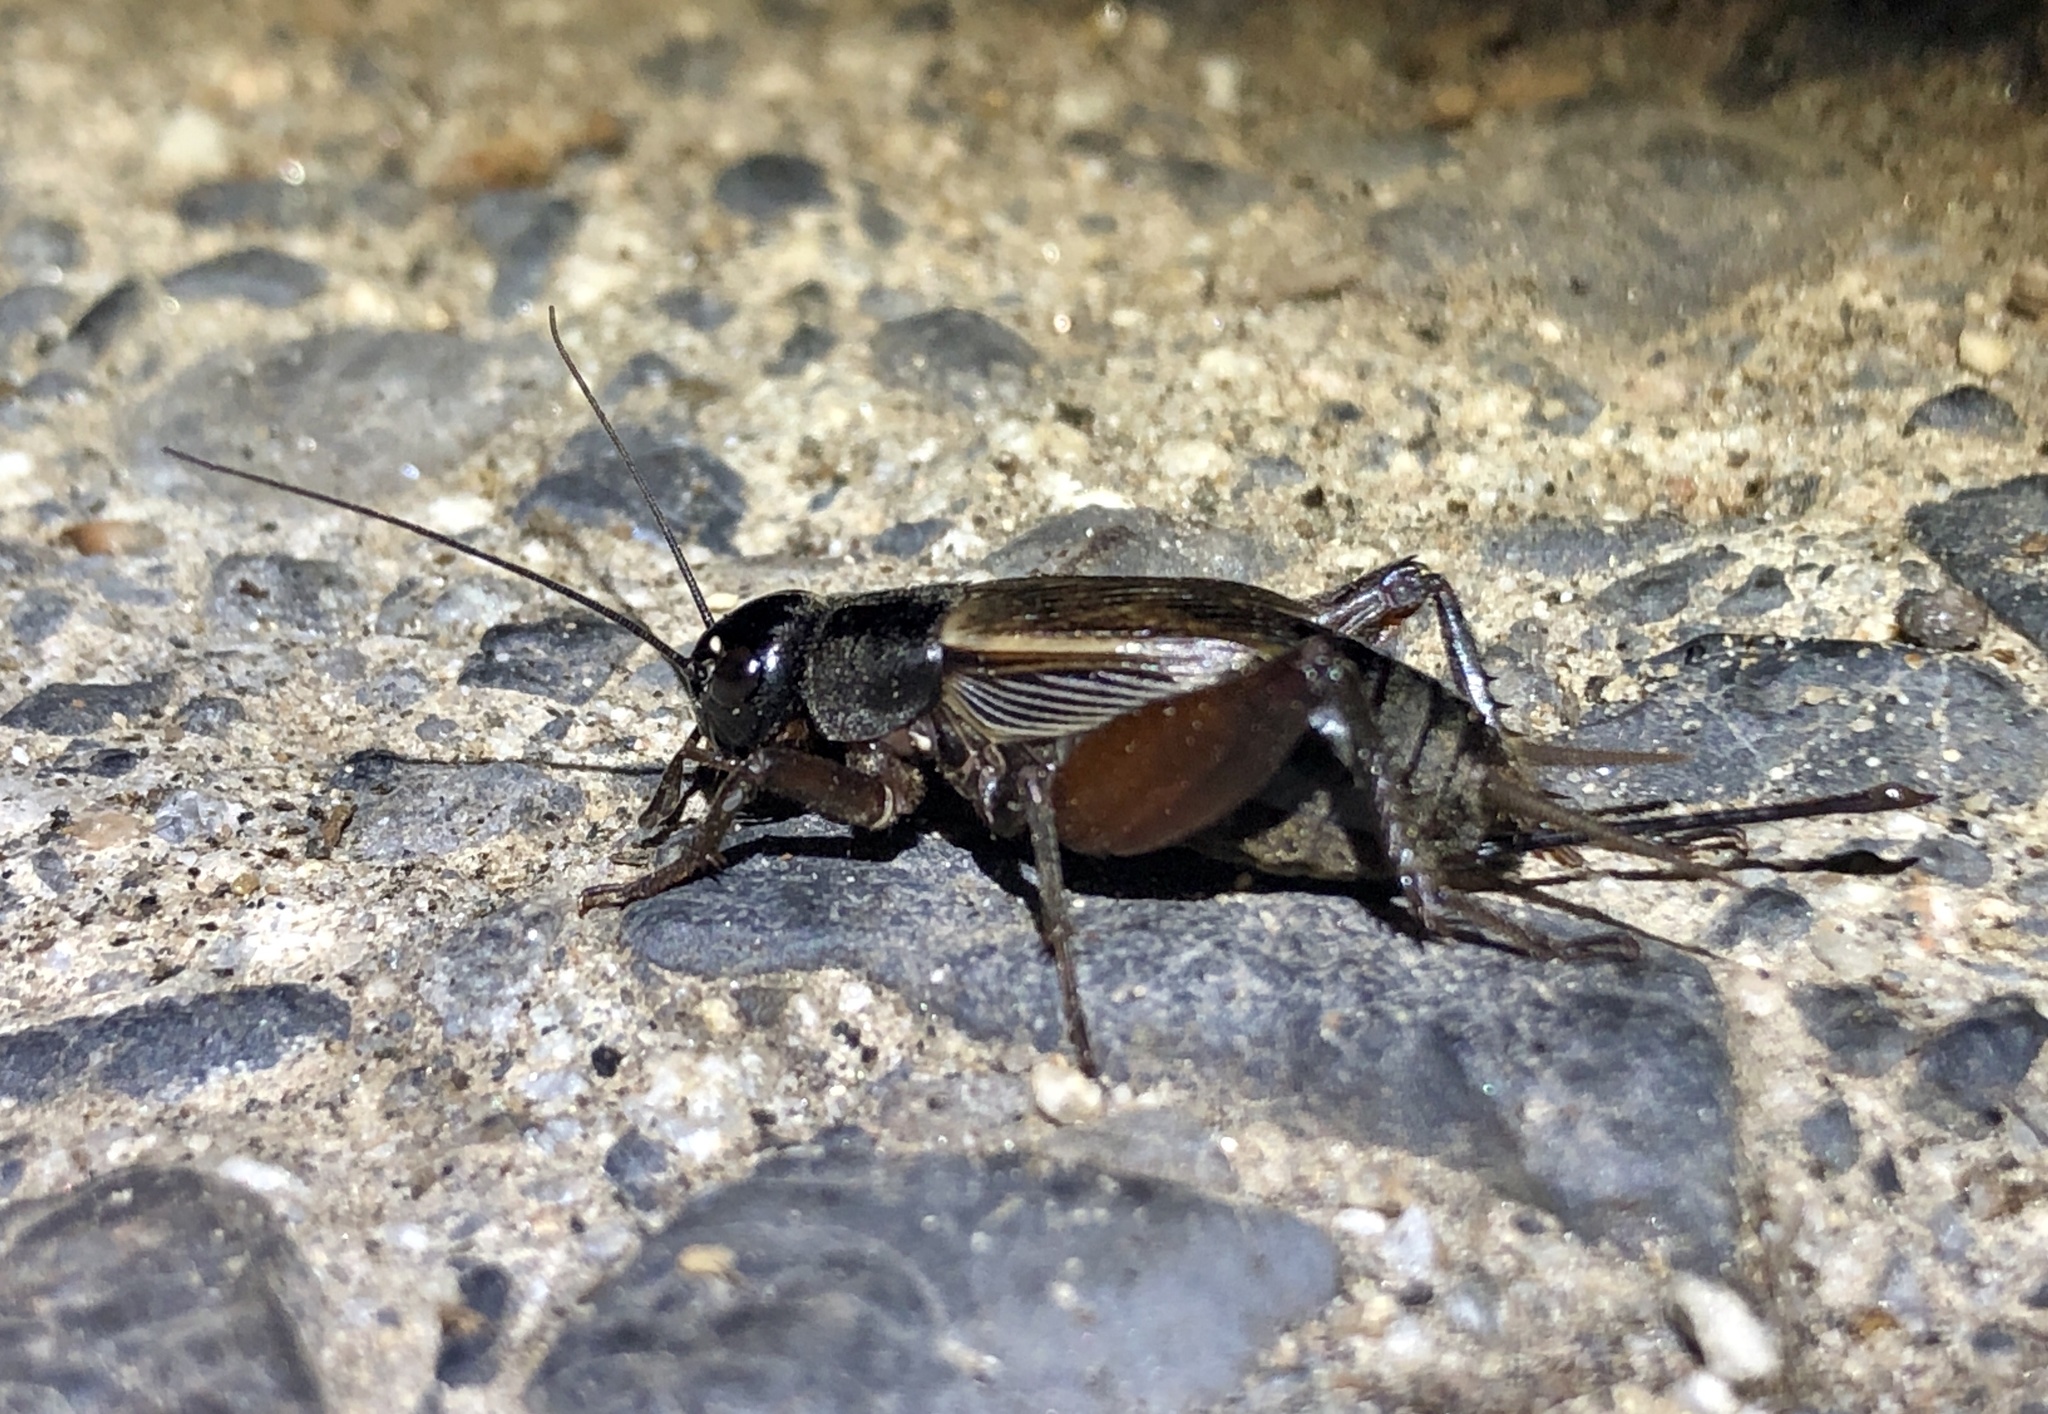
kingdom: Animalia
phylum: Arthropoda
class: Insecta
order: Orthoptera
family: Gryllidae
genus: Gryllus
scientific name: Gryllus
